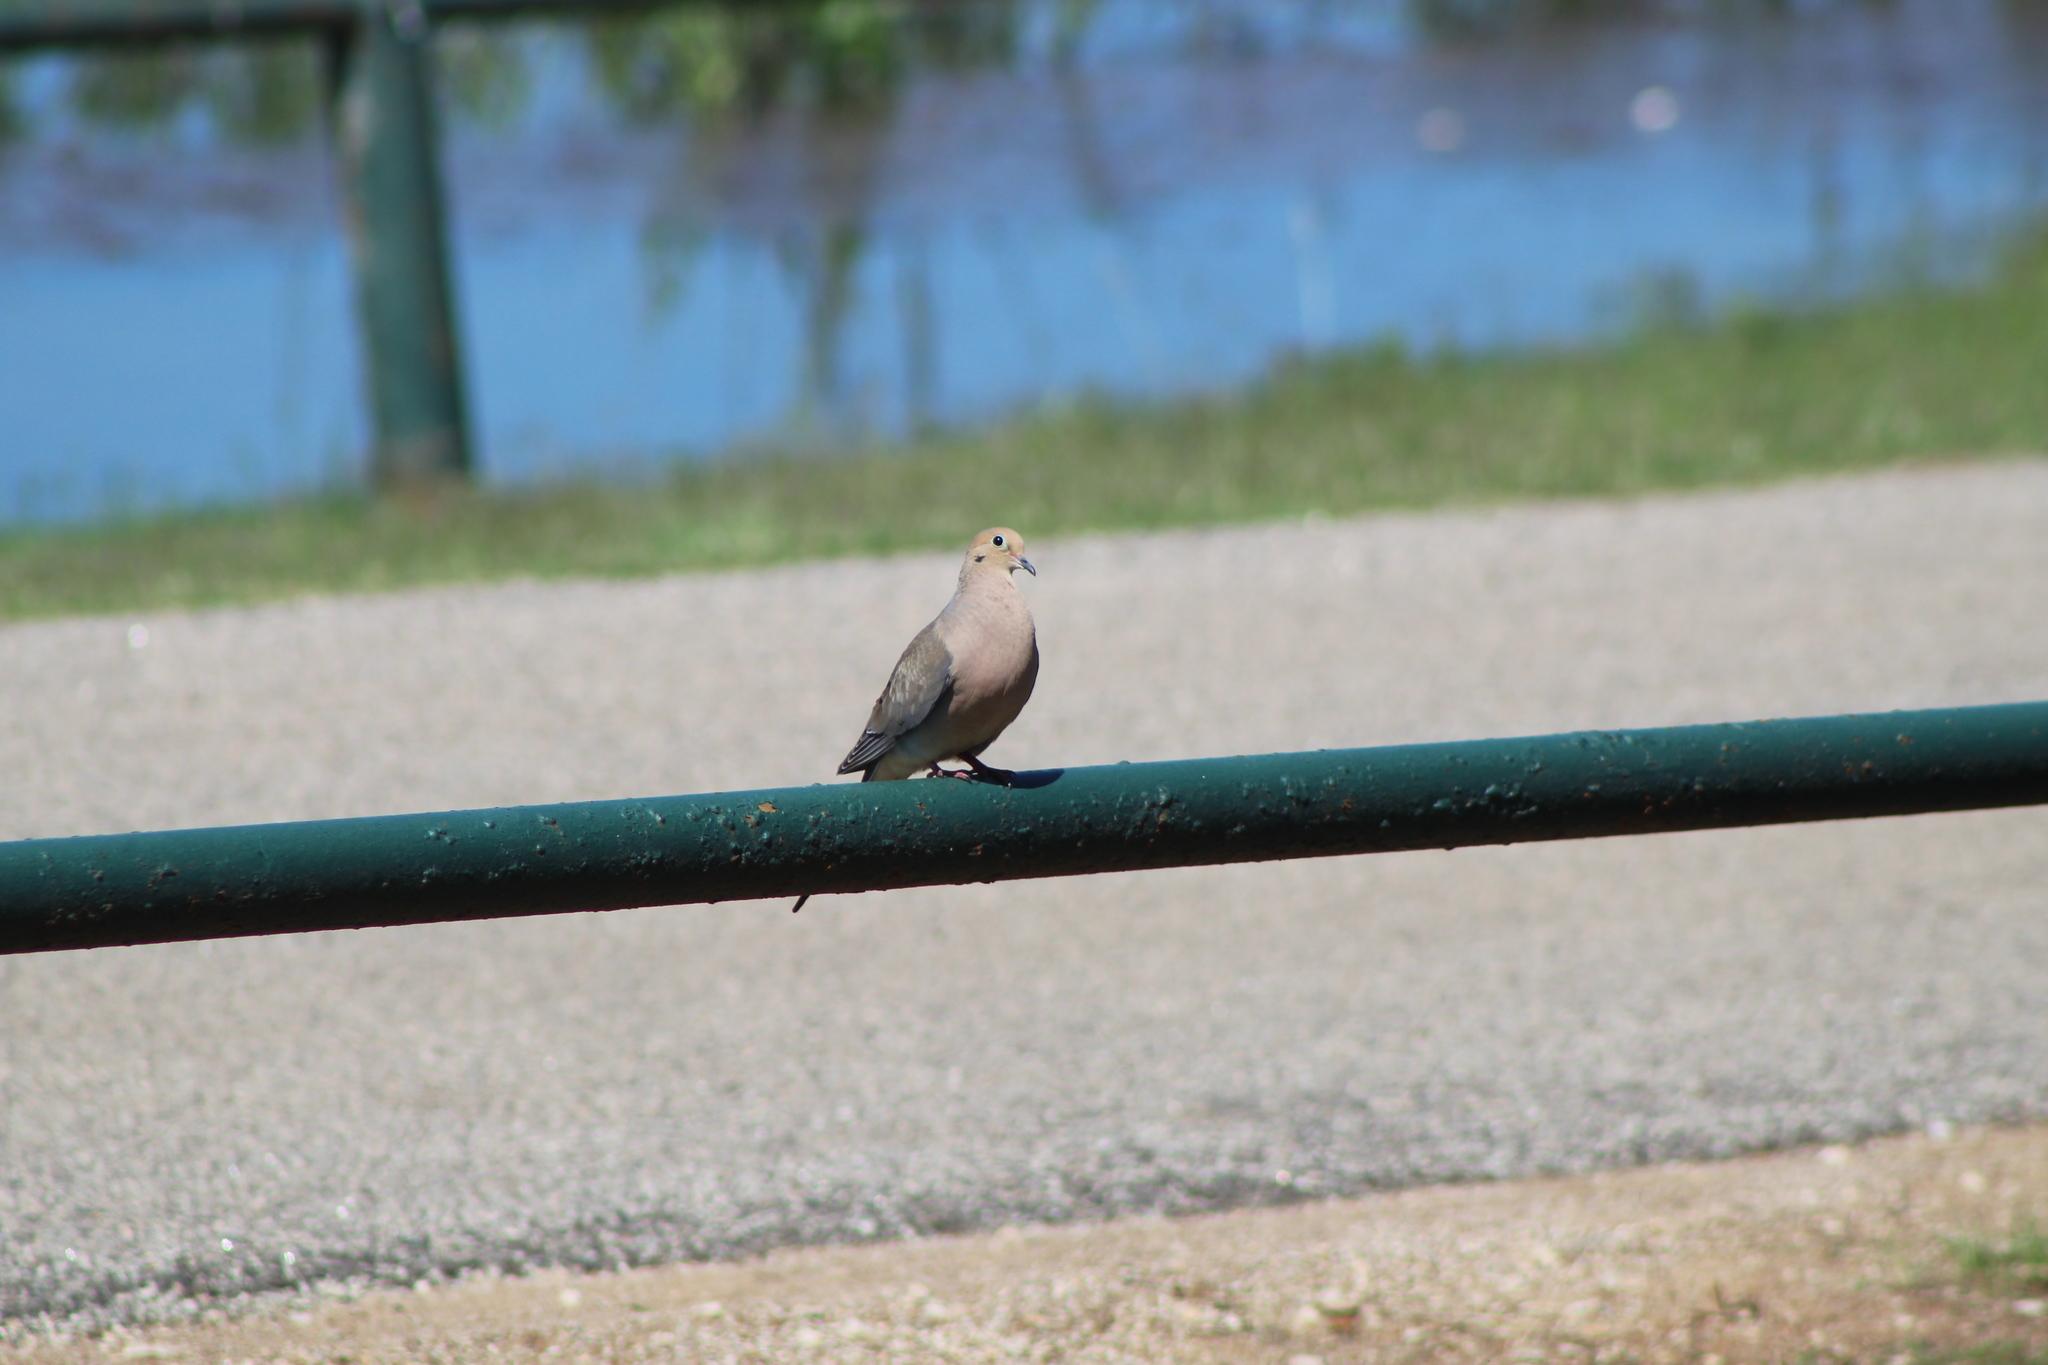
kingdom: Animalia
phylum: Chordata
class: Aves
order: Columbiformes
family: Columbidae
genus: Zenaida
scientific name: Zenaida macroura
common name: Mourning dove
